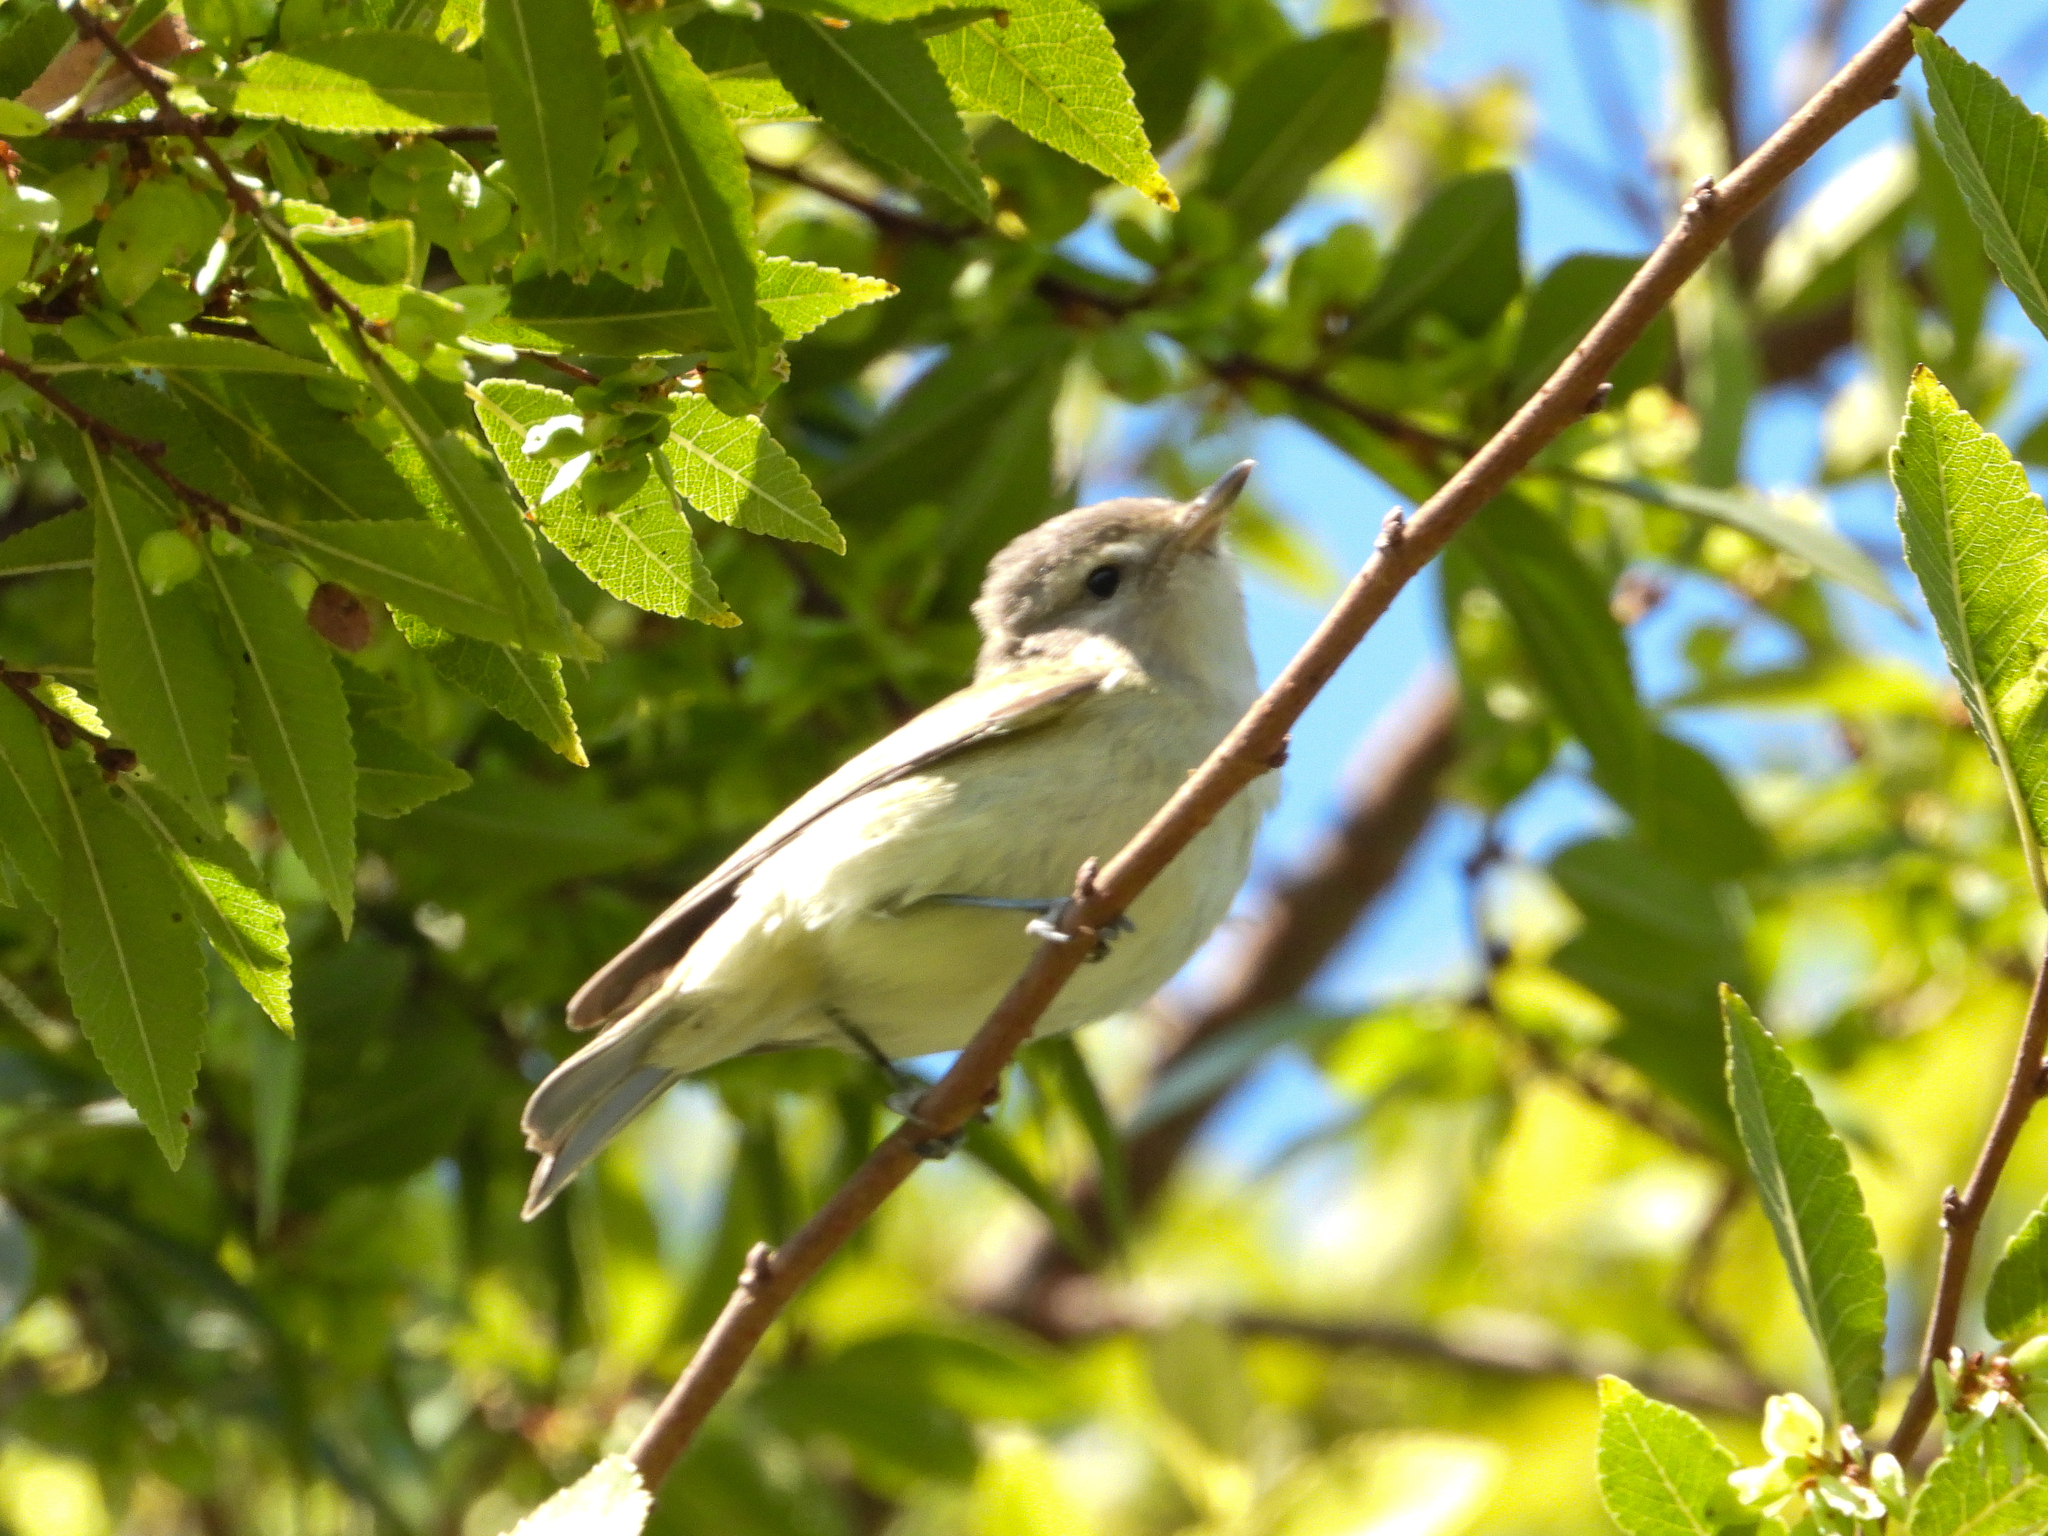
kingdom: Animalia
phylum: Chordata
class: Aves
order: Passeriformes
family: Vireonidae
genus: Vireo
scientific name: Vireo gilvus
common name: Warbling vireo
